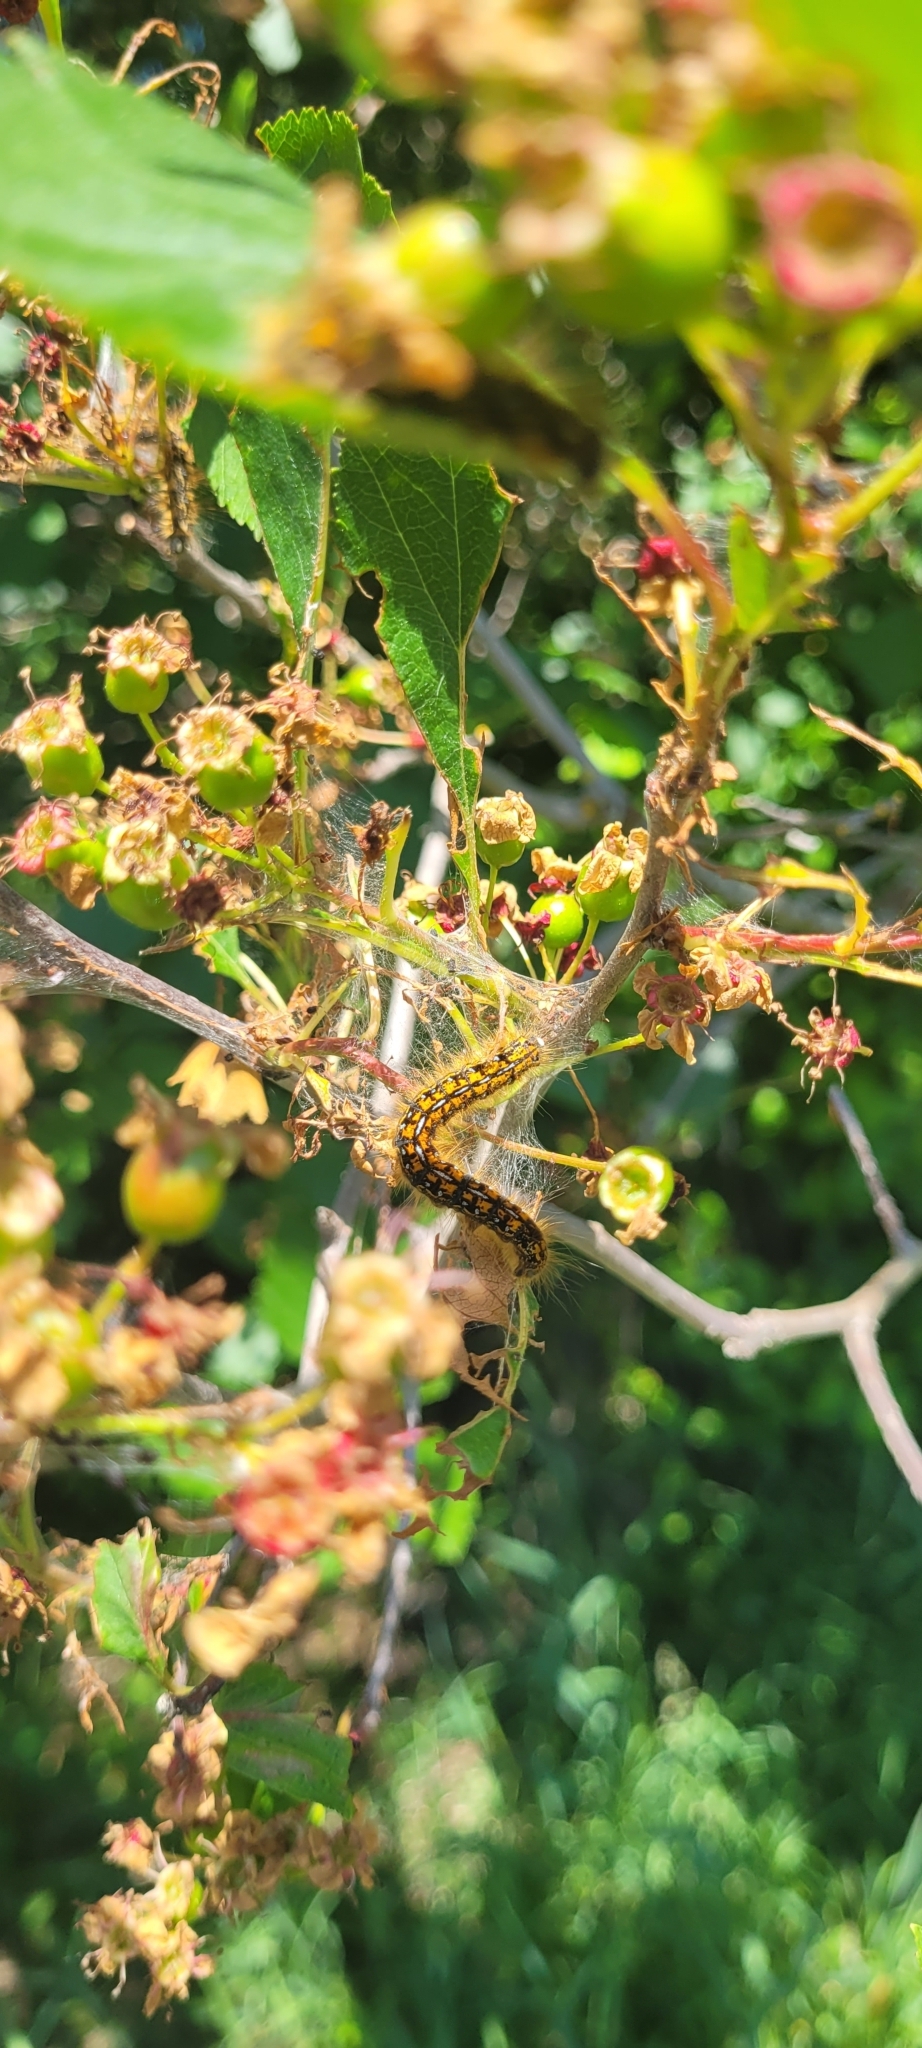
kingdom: Animalia
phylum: Arthropoda
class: Insecta
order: Lepidoptera
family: Lasiocampidae
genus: Malacosoma
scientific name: Malacosoma californica
